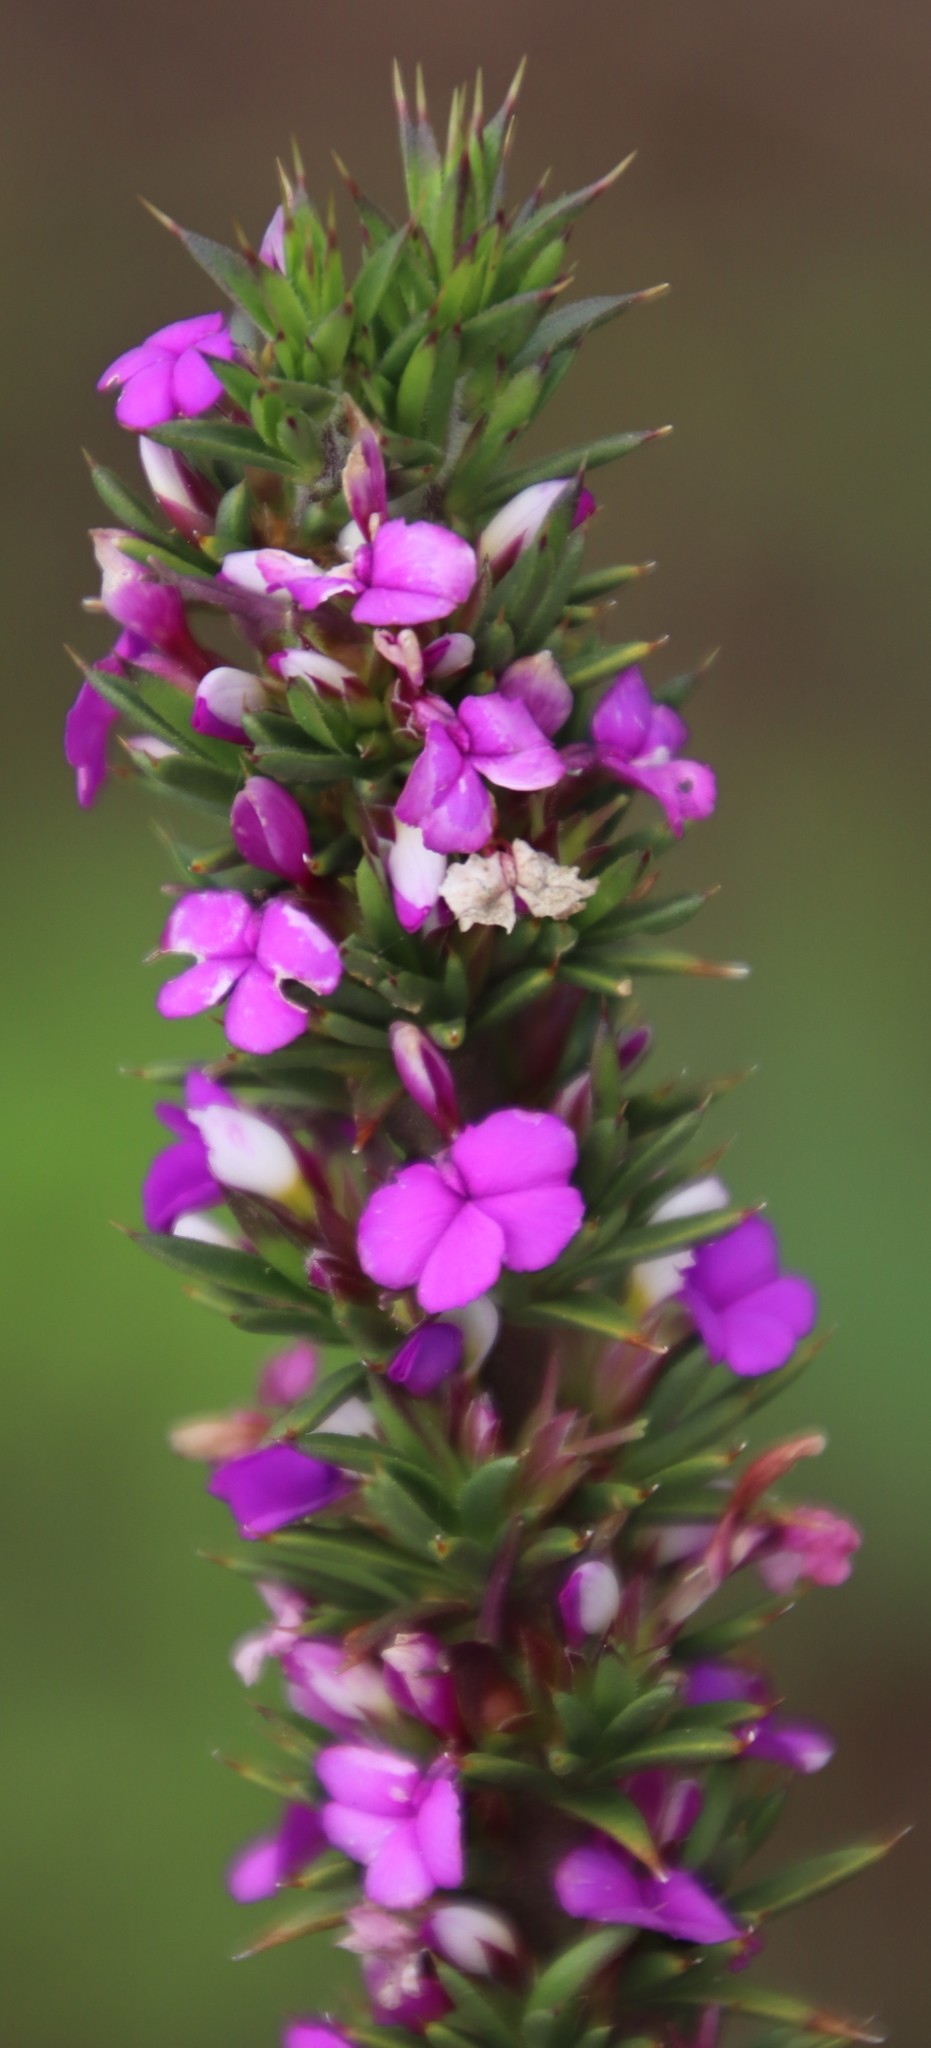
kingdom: Plantae
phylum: Tracheophyta
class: Magnoliopsida
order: Fabales
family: Polygalaceae
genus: Muraltia
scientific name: Muraltia heisteria
